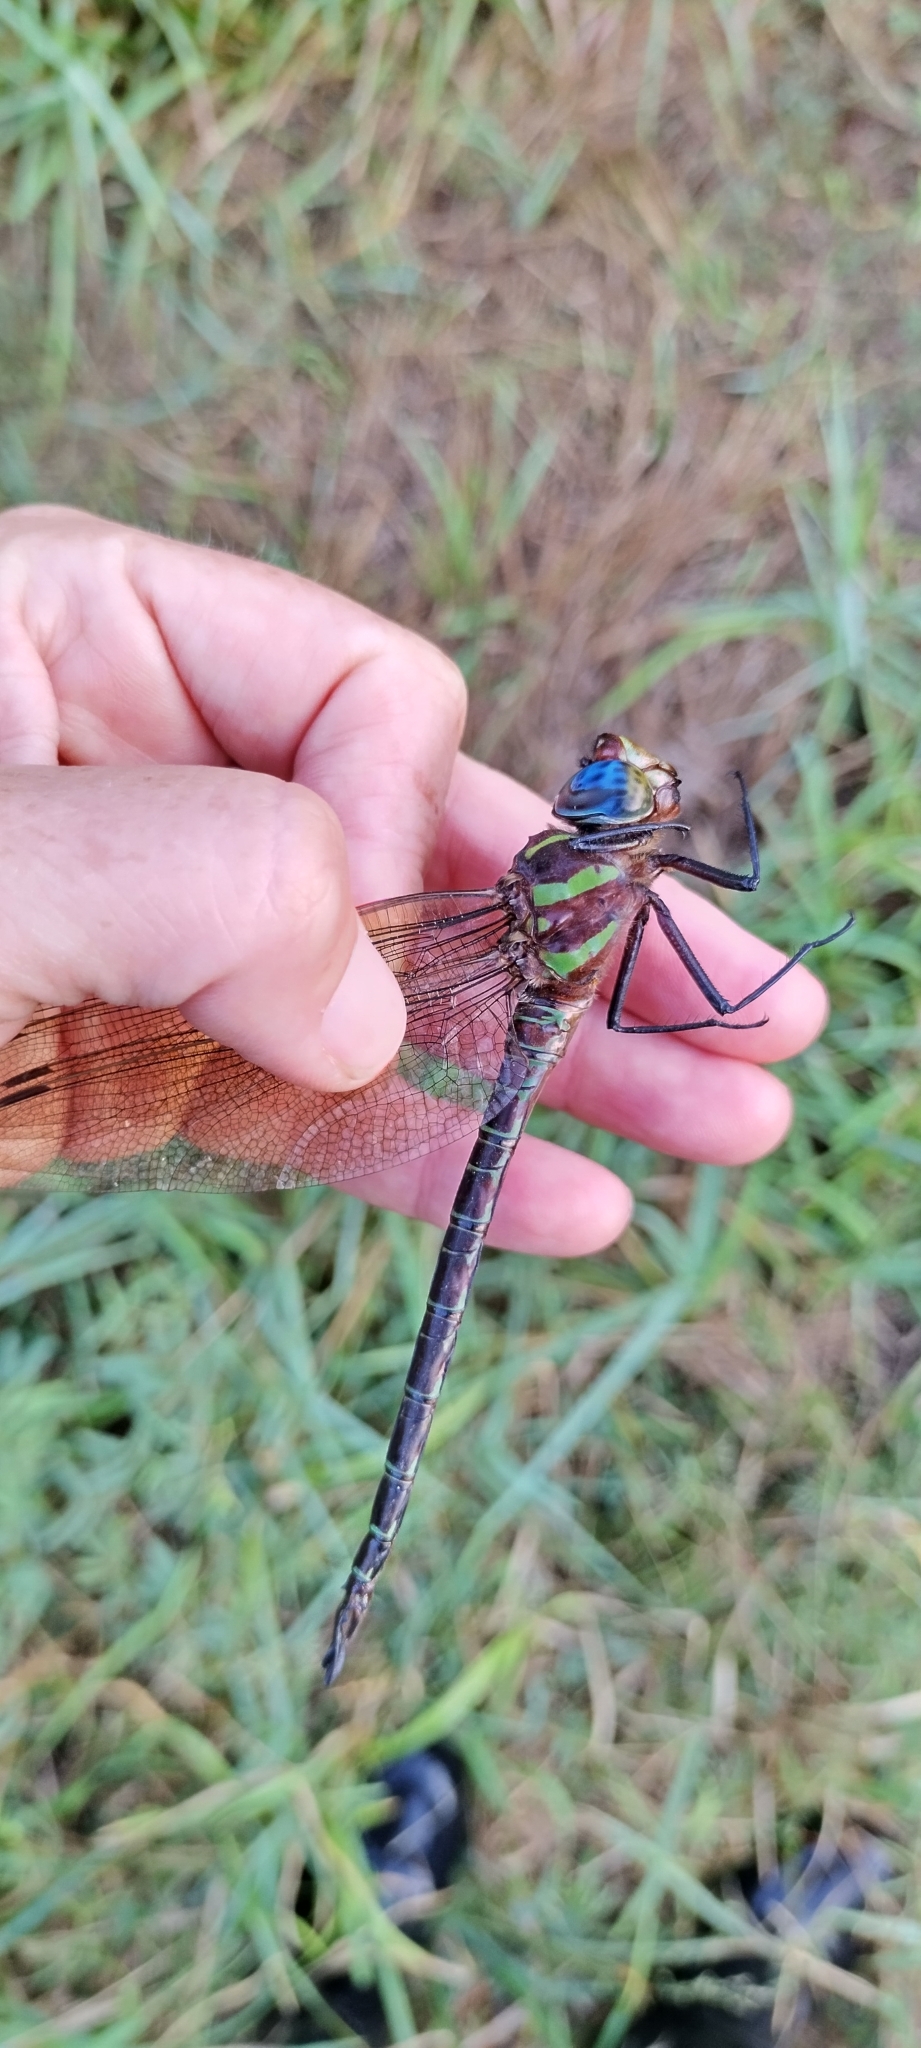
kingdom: Animalia
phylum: Arthropoda
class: Insecta
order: Odonata
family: Aeshnidae
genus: Epiaeschna
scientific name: Epiaeschna heros
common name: Swamp darner
